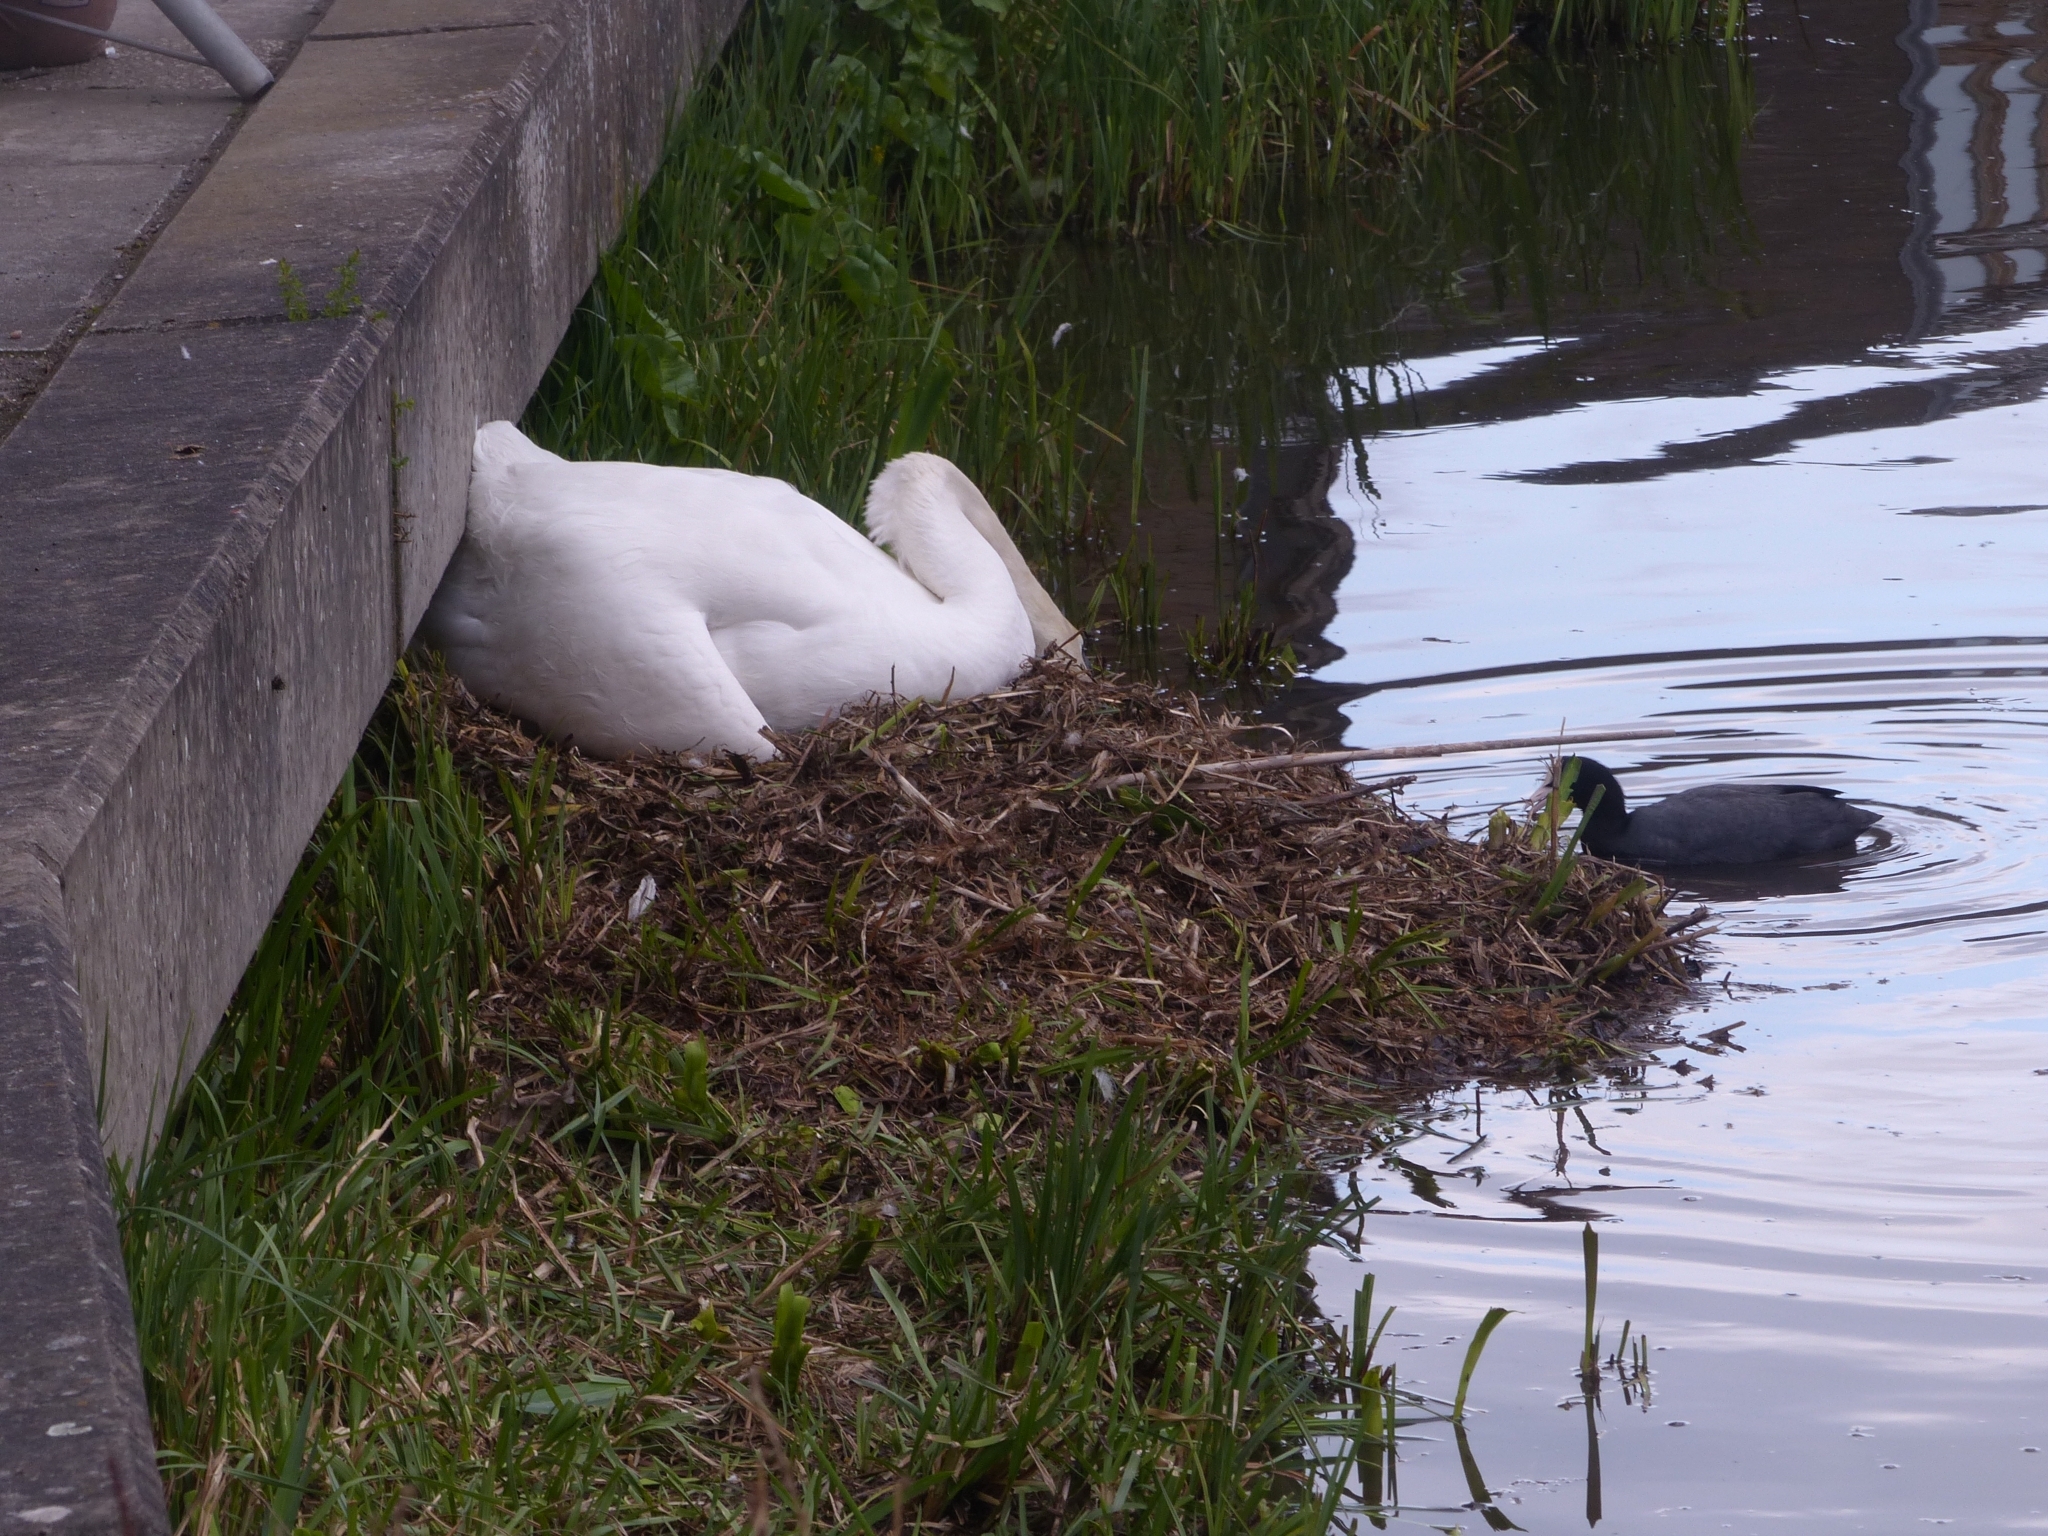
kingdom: Animalia
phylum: Chordata
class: Aves
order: Anseriformes
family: Anatidae
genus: Cygnus
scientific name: Cygnus olor
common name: Mute swan
